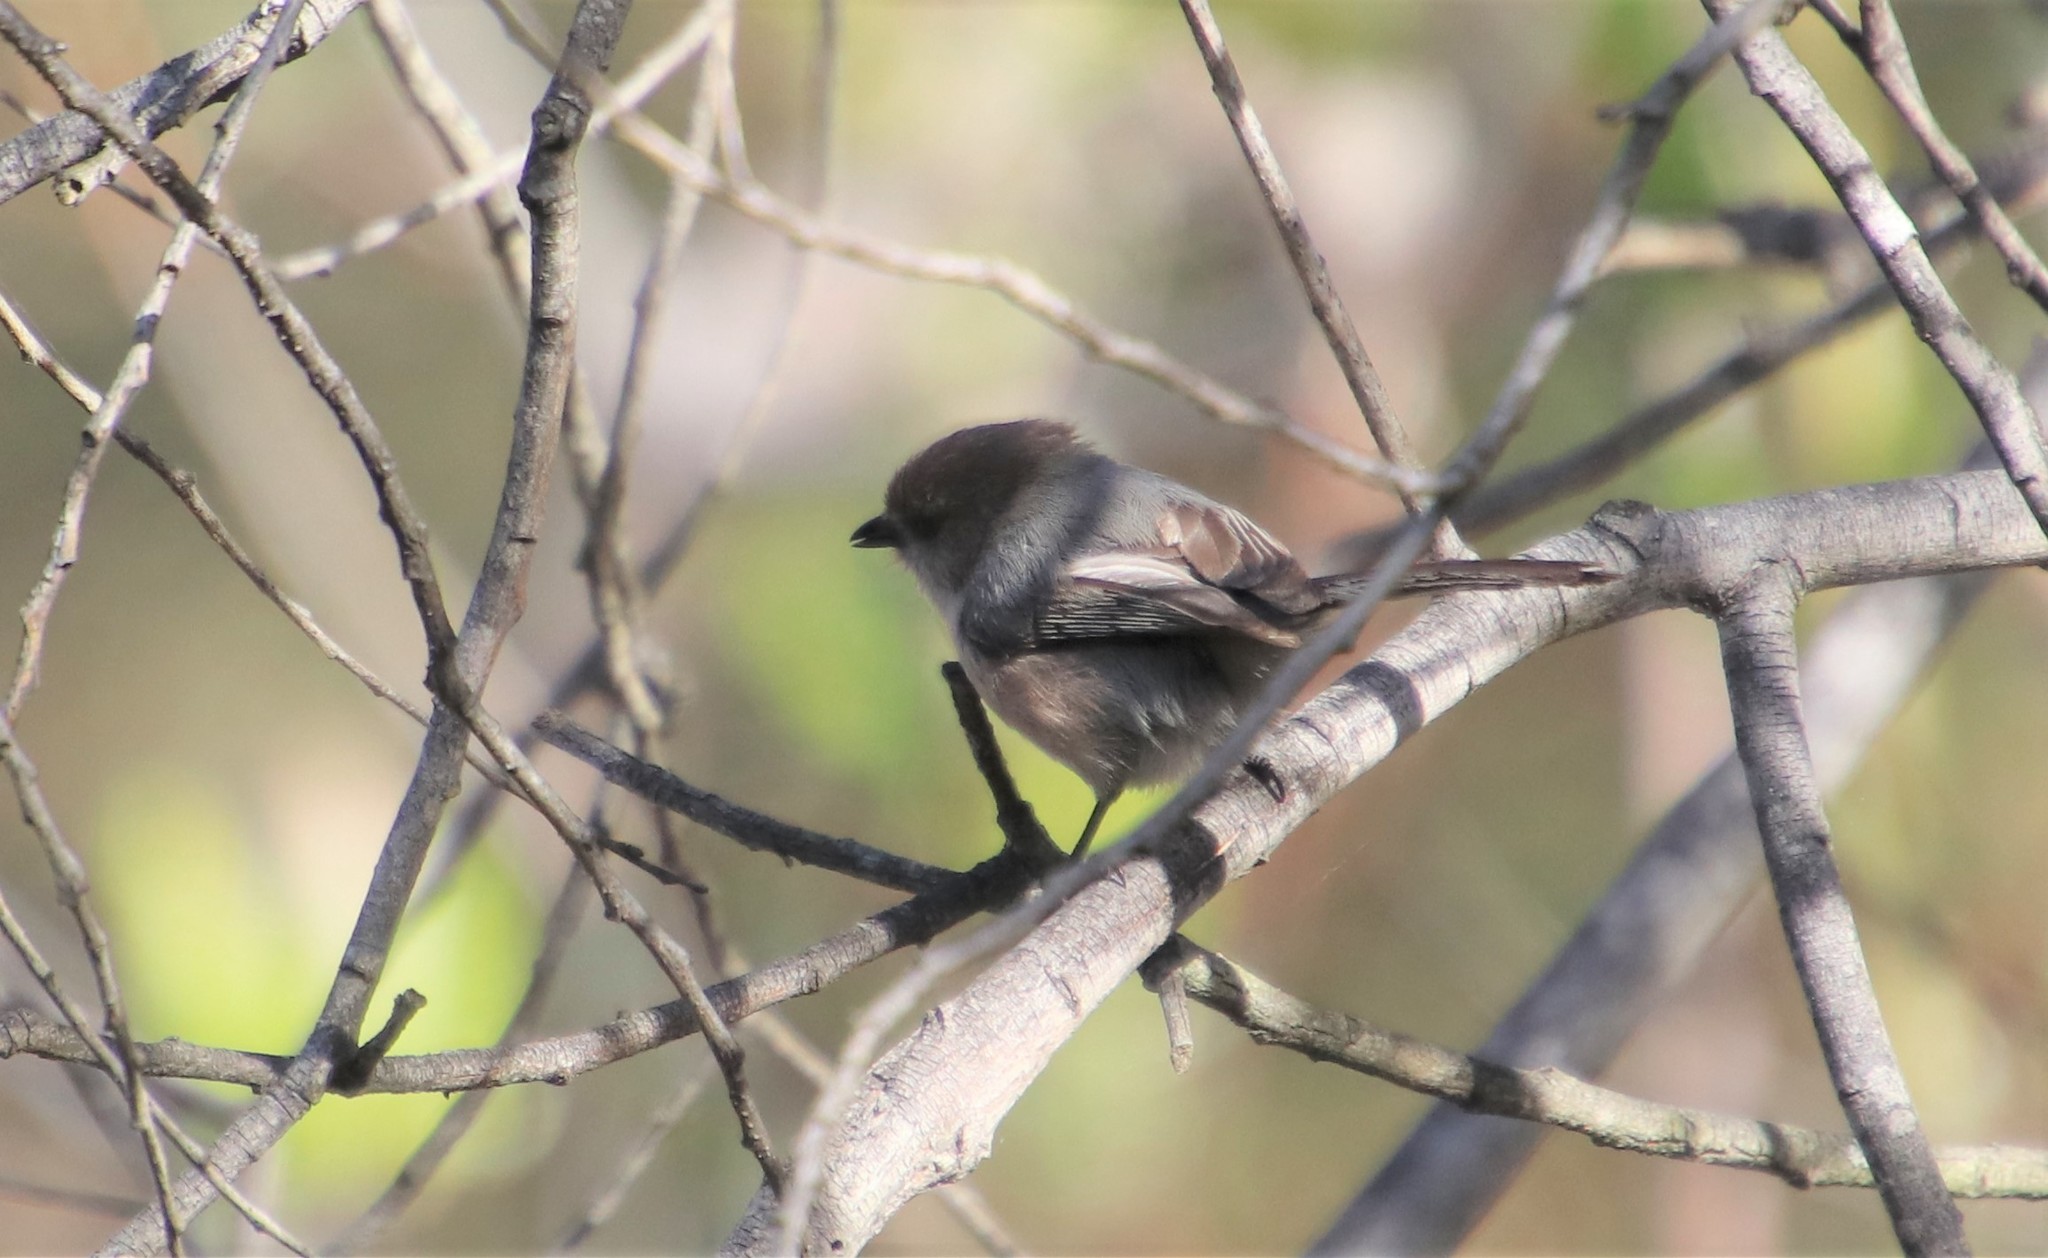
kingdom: Animalia
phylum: Chordata
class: Aves
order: Passeriformes
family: Aegithalidae
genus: Psaltriparus
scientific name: Psaltriparus minimus
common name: American bushtit
